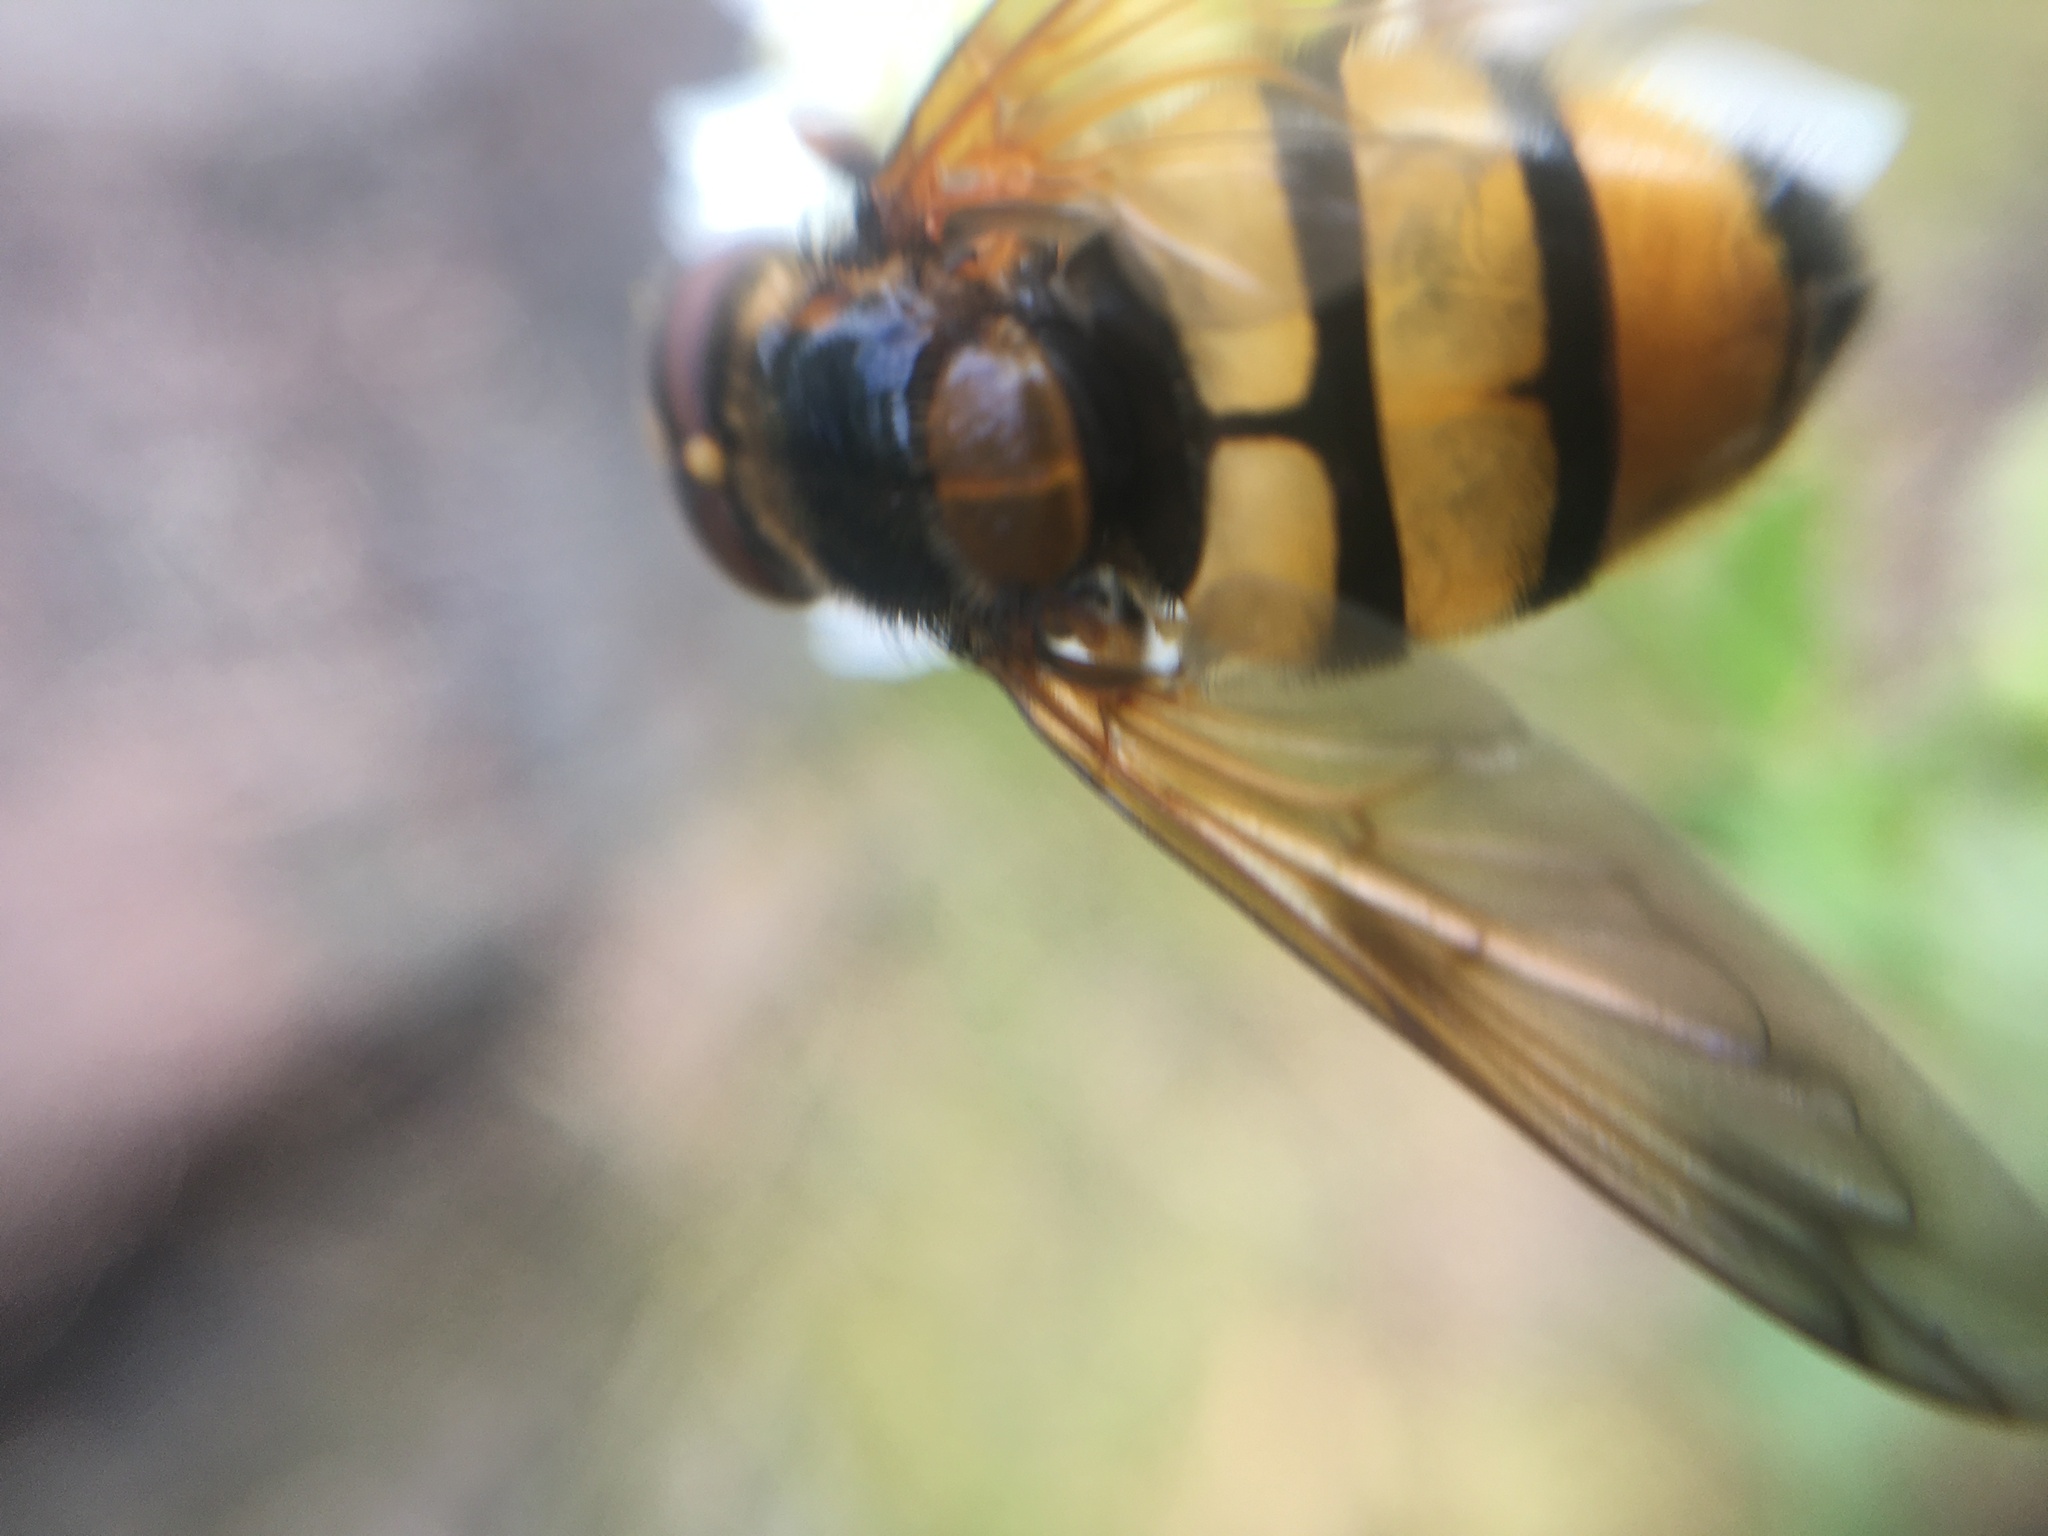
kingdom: Animalia
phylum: Arthropoda
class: Insecta
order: Diptera
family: Syrphidae
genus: Volucella
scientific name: Volucella inanis
